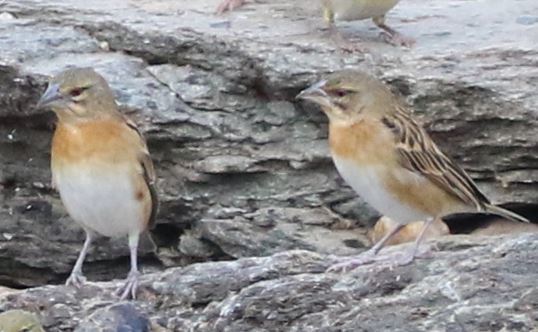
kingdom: Animalia
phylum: Chordata
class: Aves
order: Passeriformes
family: Ploceidae
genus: Ploceus
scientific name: Ploceus cucullatus
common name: Village weaver
